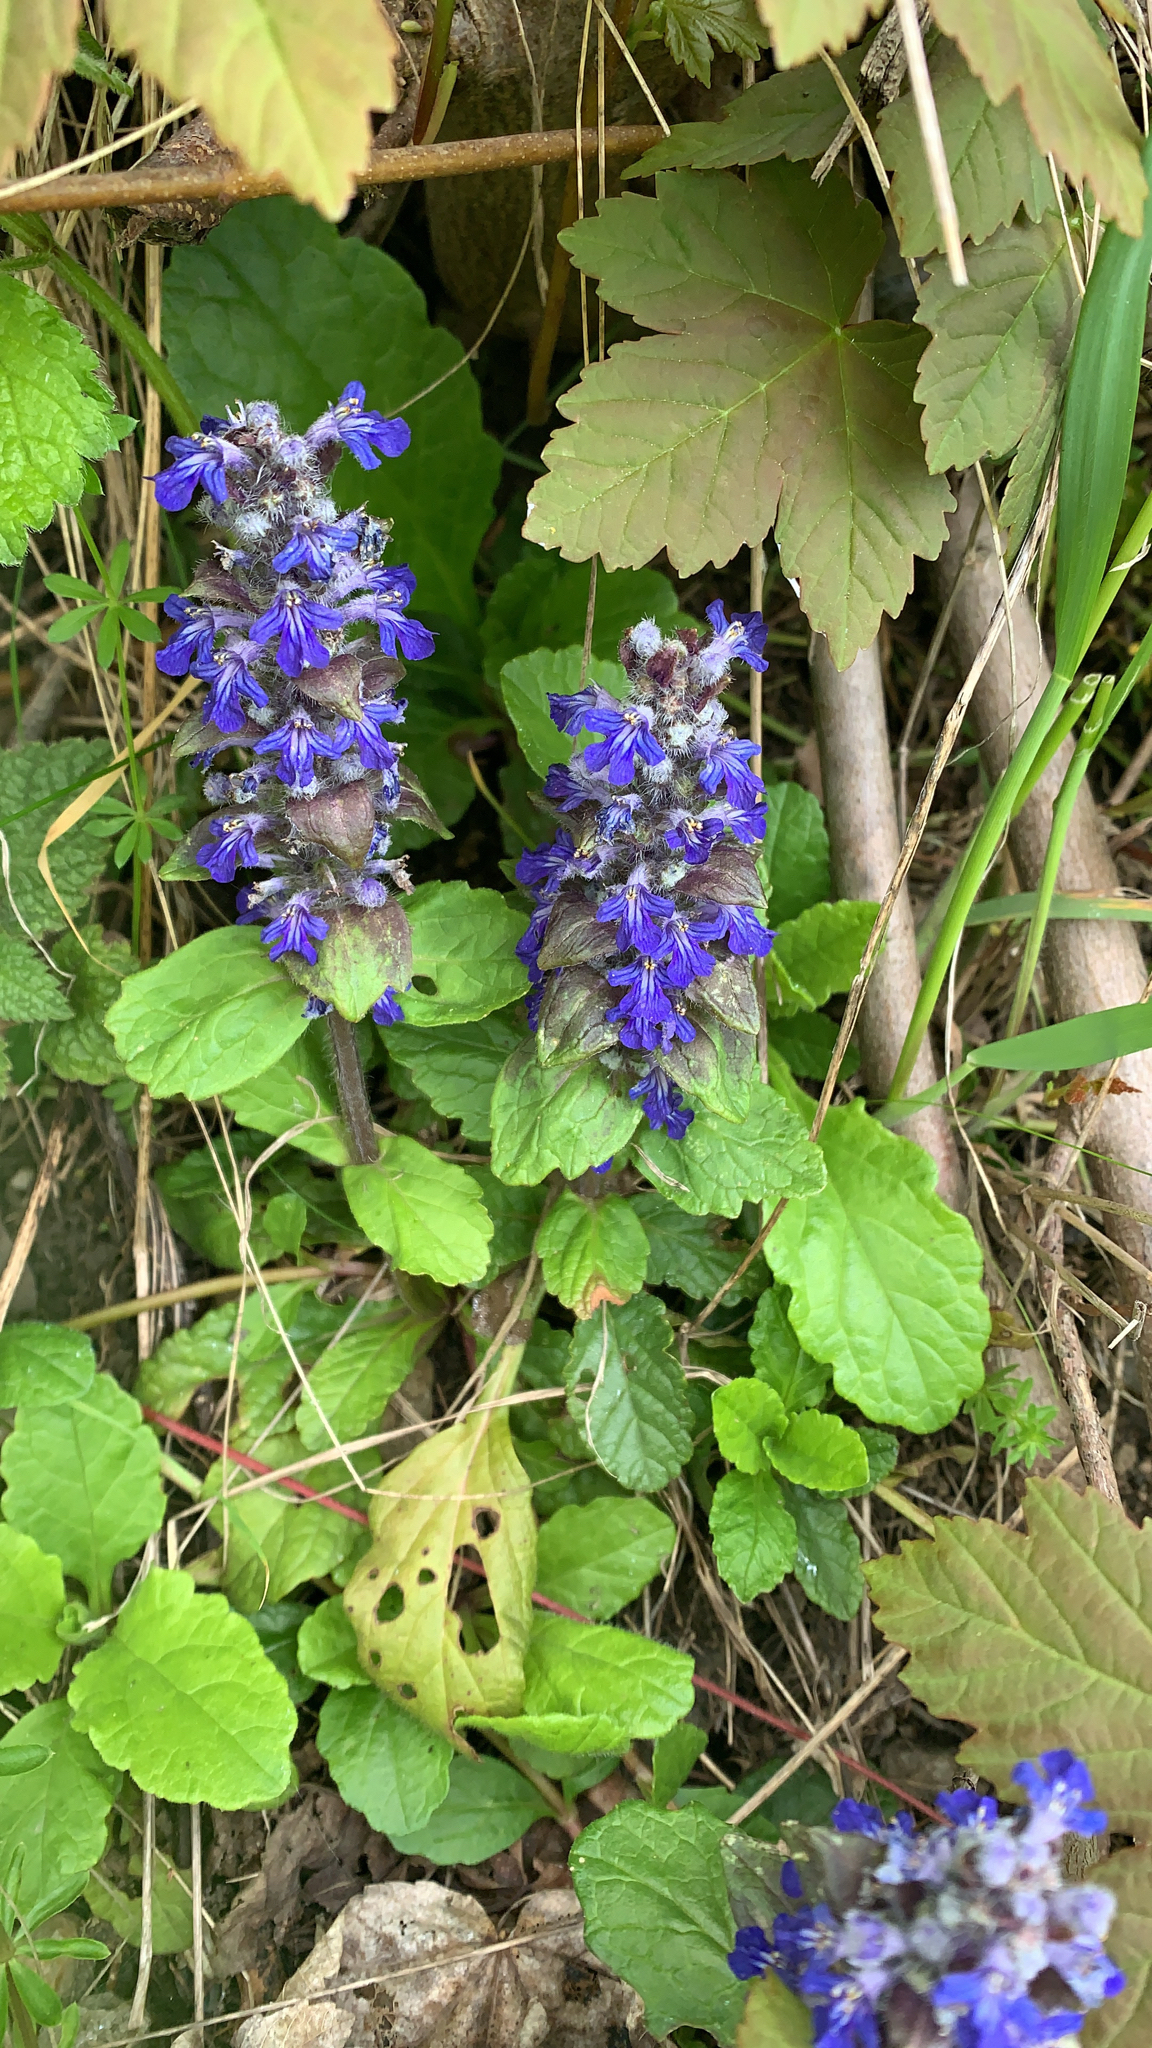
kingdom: Plantae
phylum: Tracheophyta
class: Magnoliopsida
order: Lamiales
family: Lamiaceae
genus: Ajuga
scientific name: Ajuga reptans
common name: Bugle
